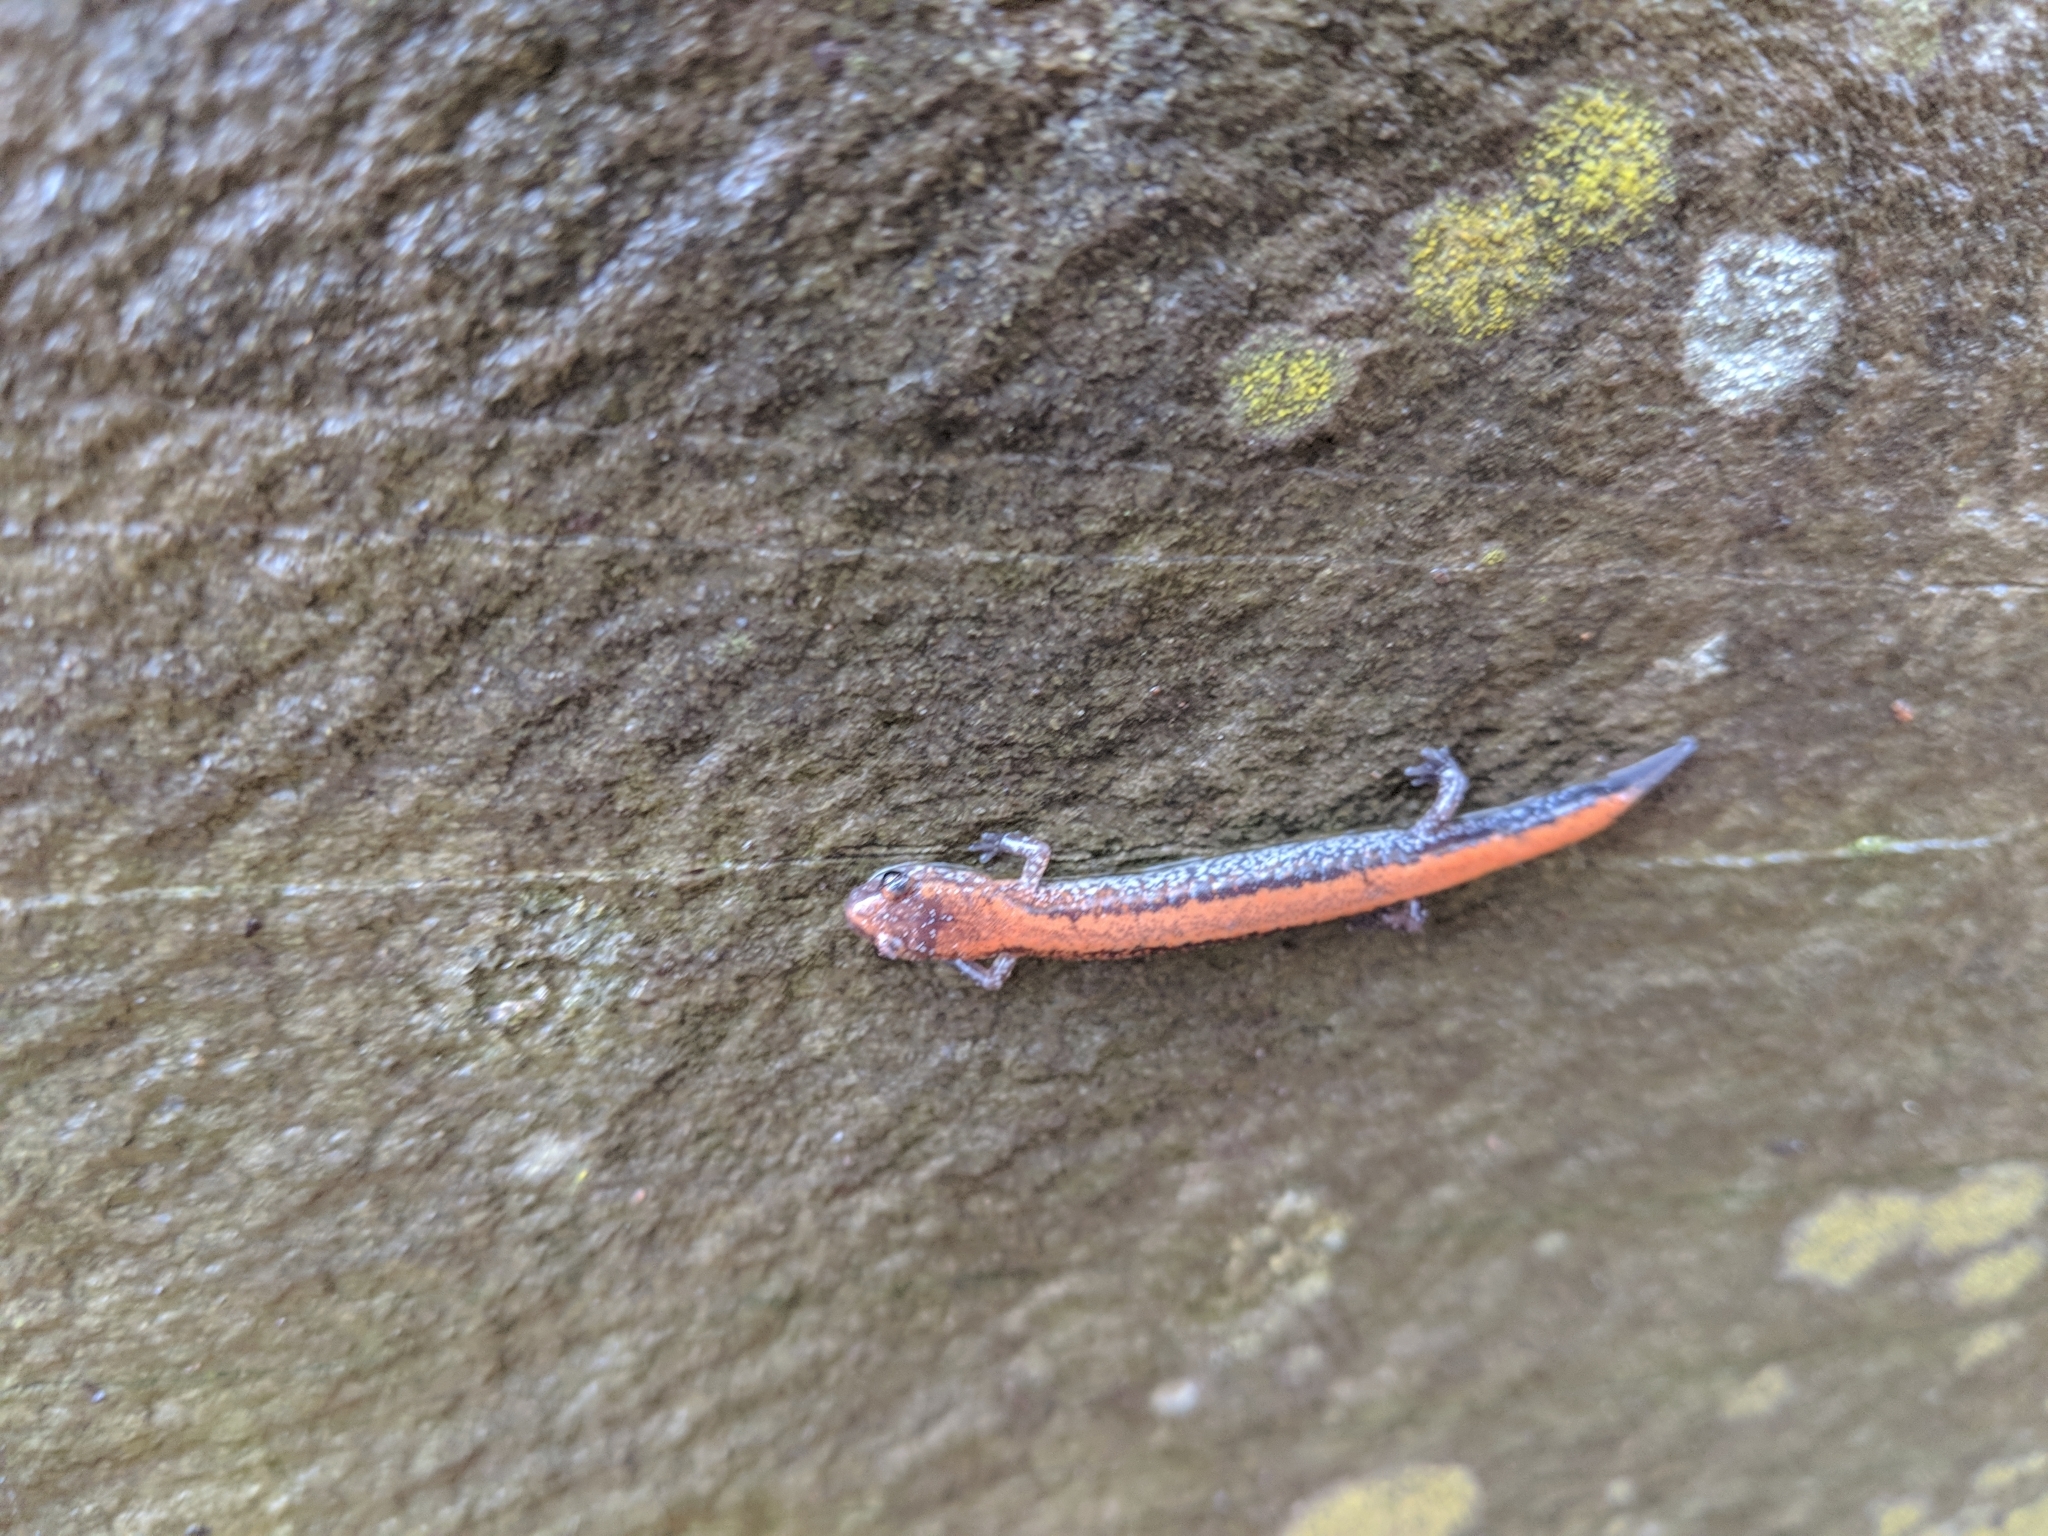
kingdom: Animalia
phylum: Chordata
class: Amphibia
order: Caudata
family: Plethodontidae
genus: Plethodon
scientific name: Plethodon cinereus
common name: Redback salamander
